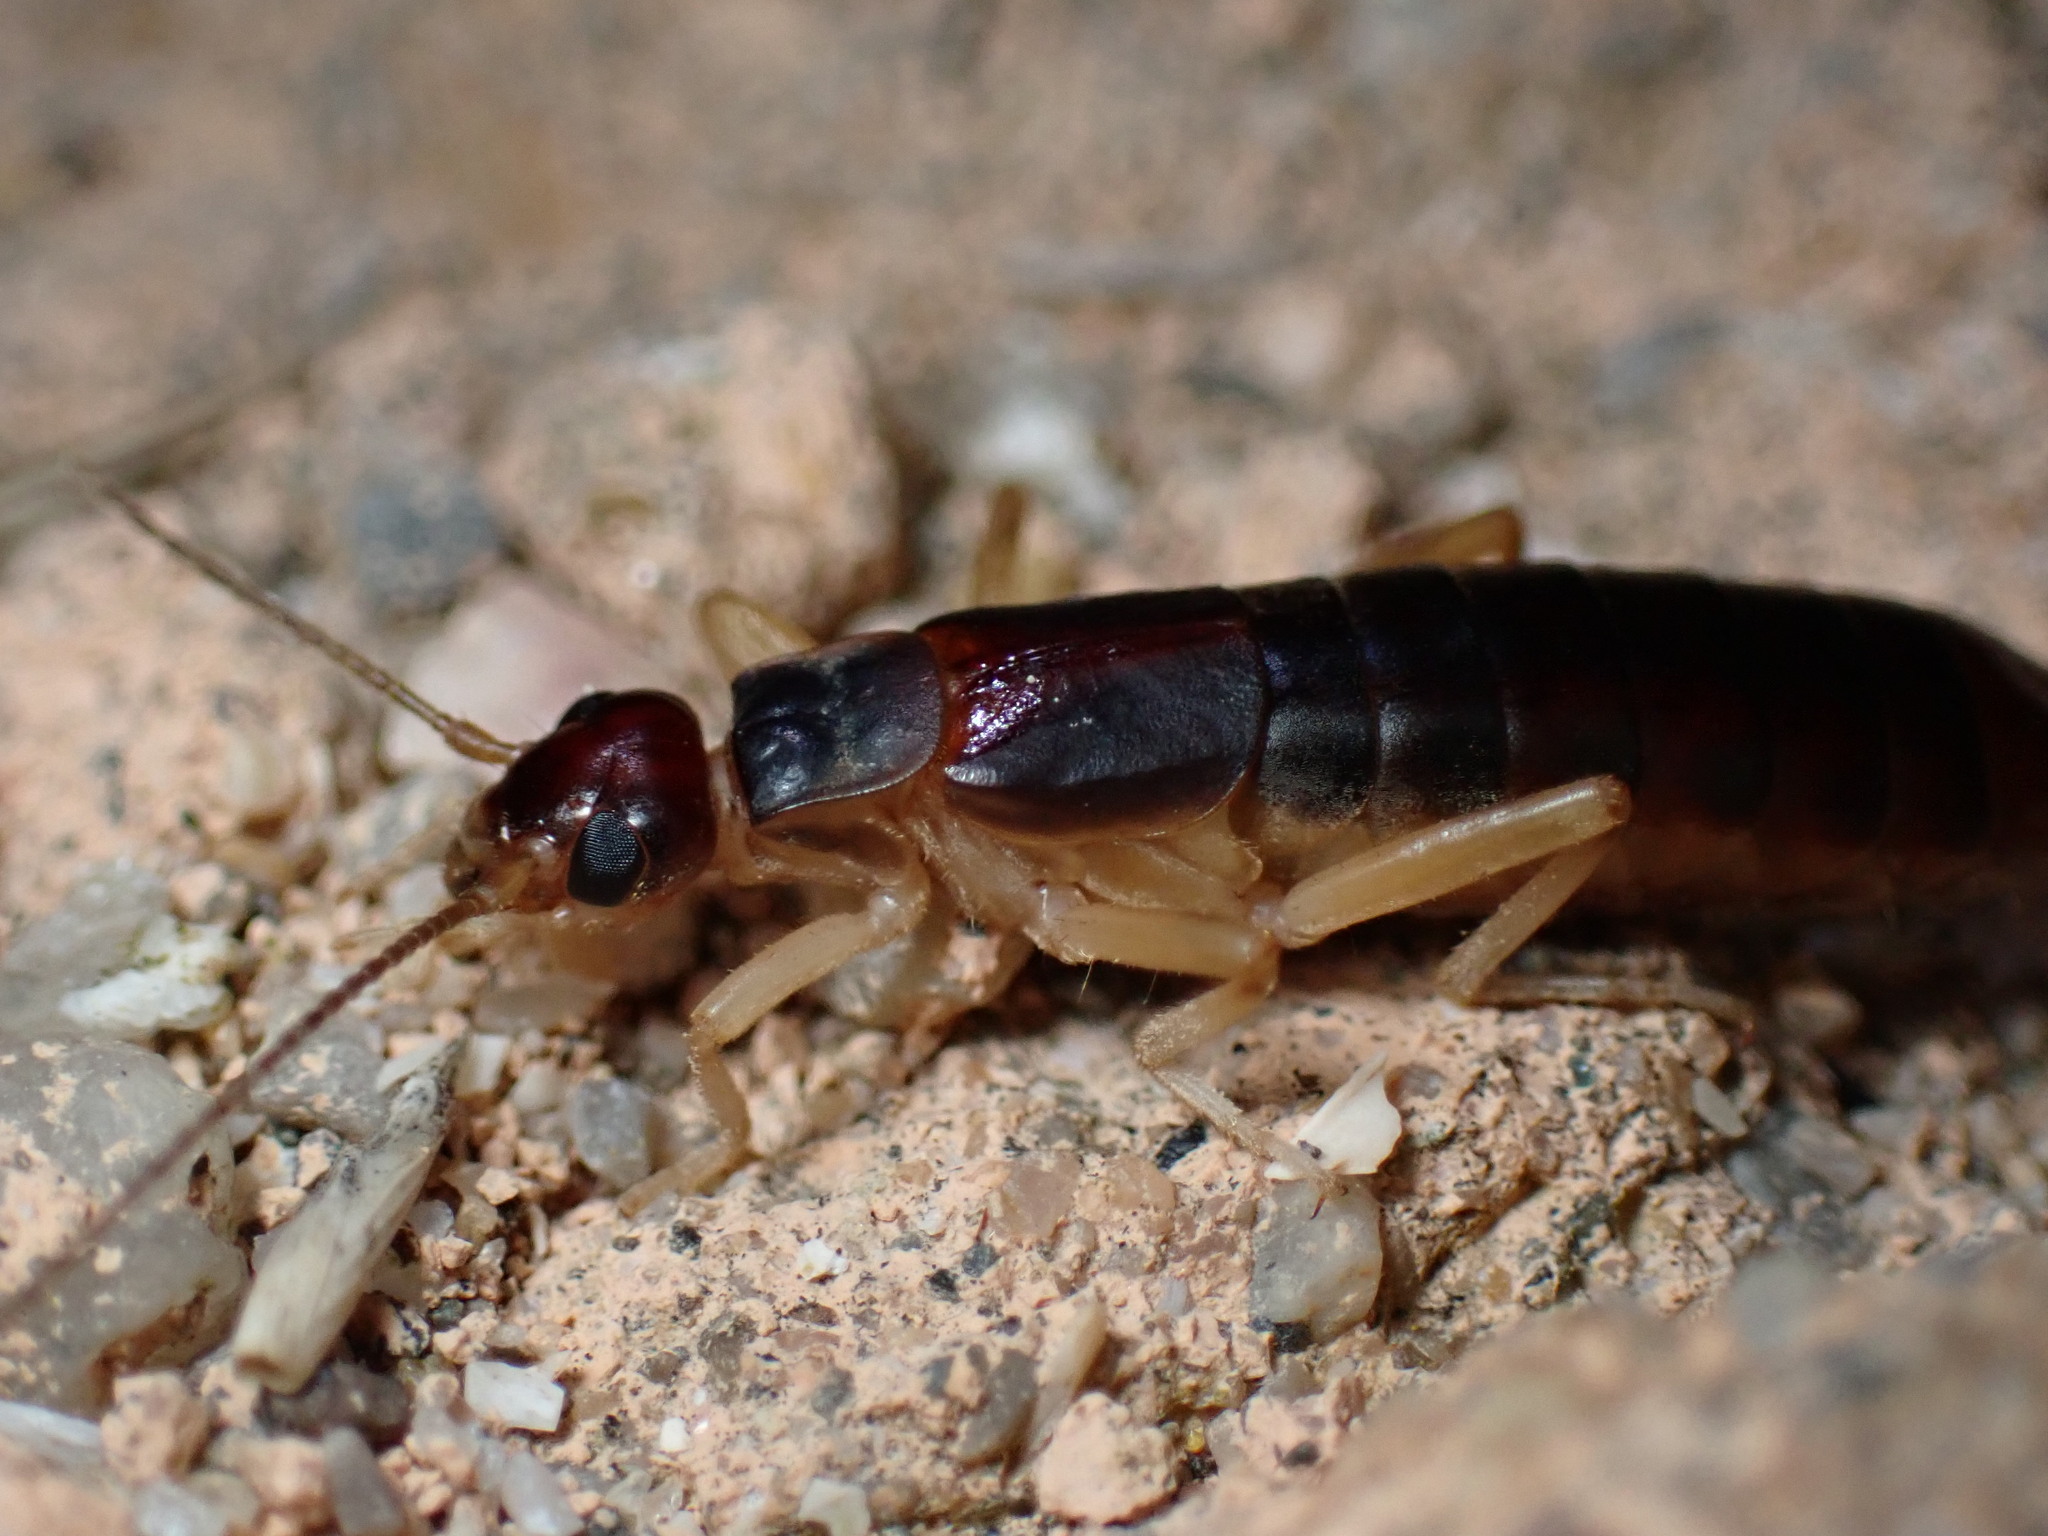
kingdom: Animalia
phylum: Arthropoda
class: Insecta
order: Dermaptera
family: Labiduridae
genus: Labidura
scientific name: Labidura riparia
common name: Striped earwig
